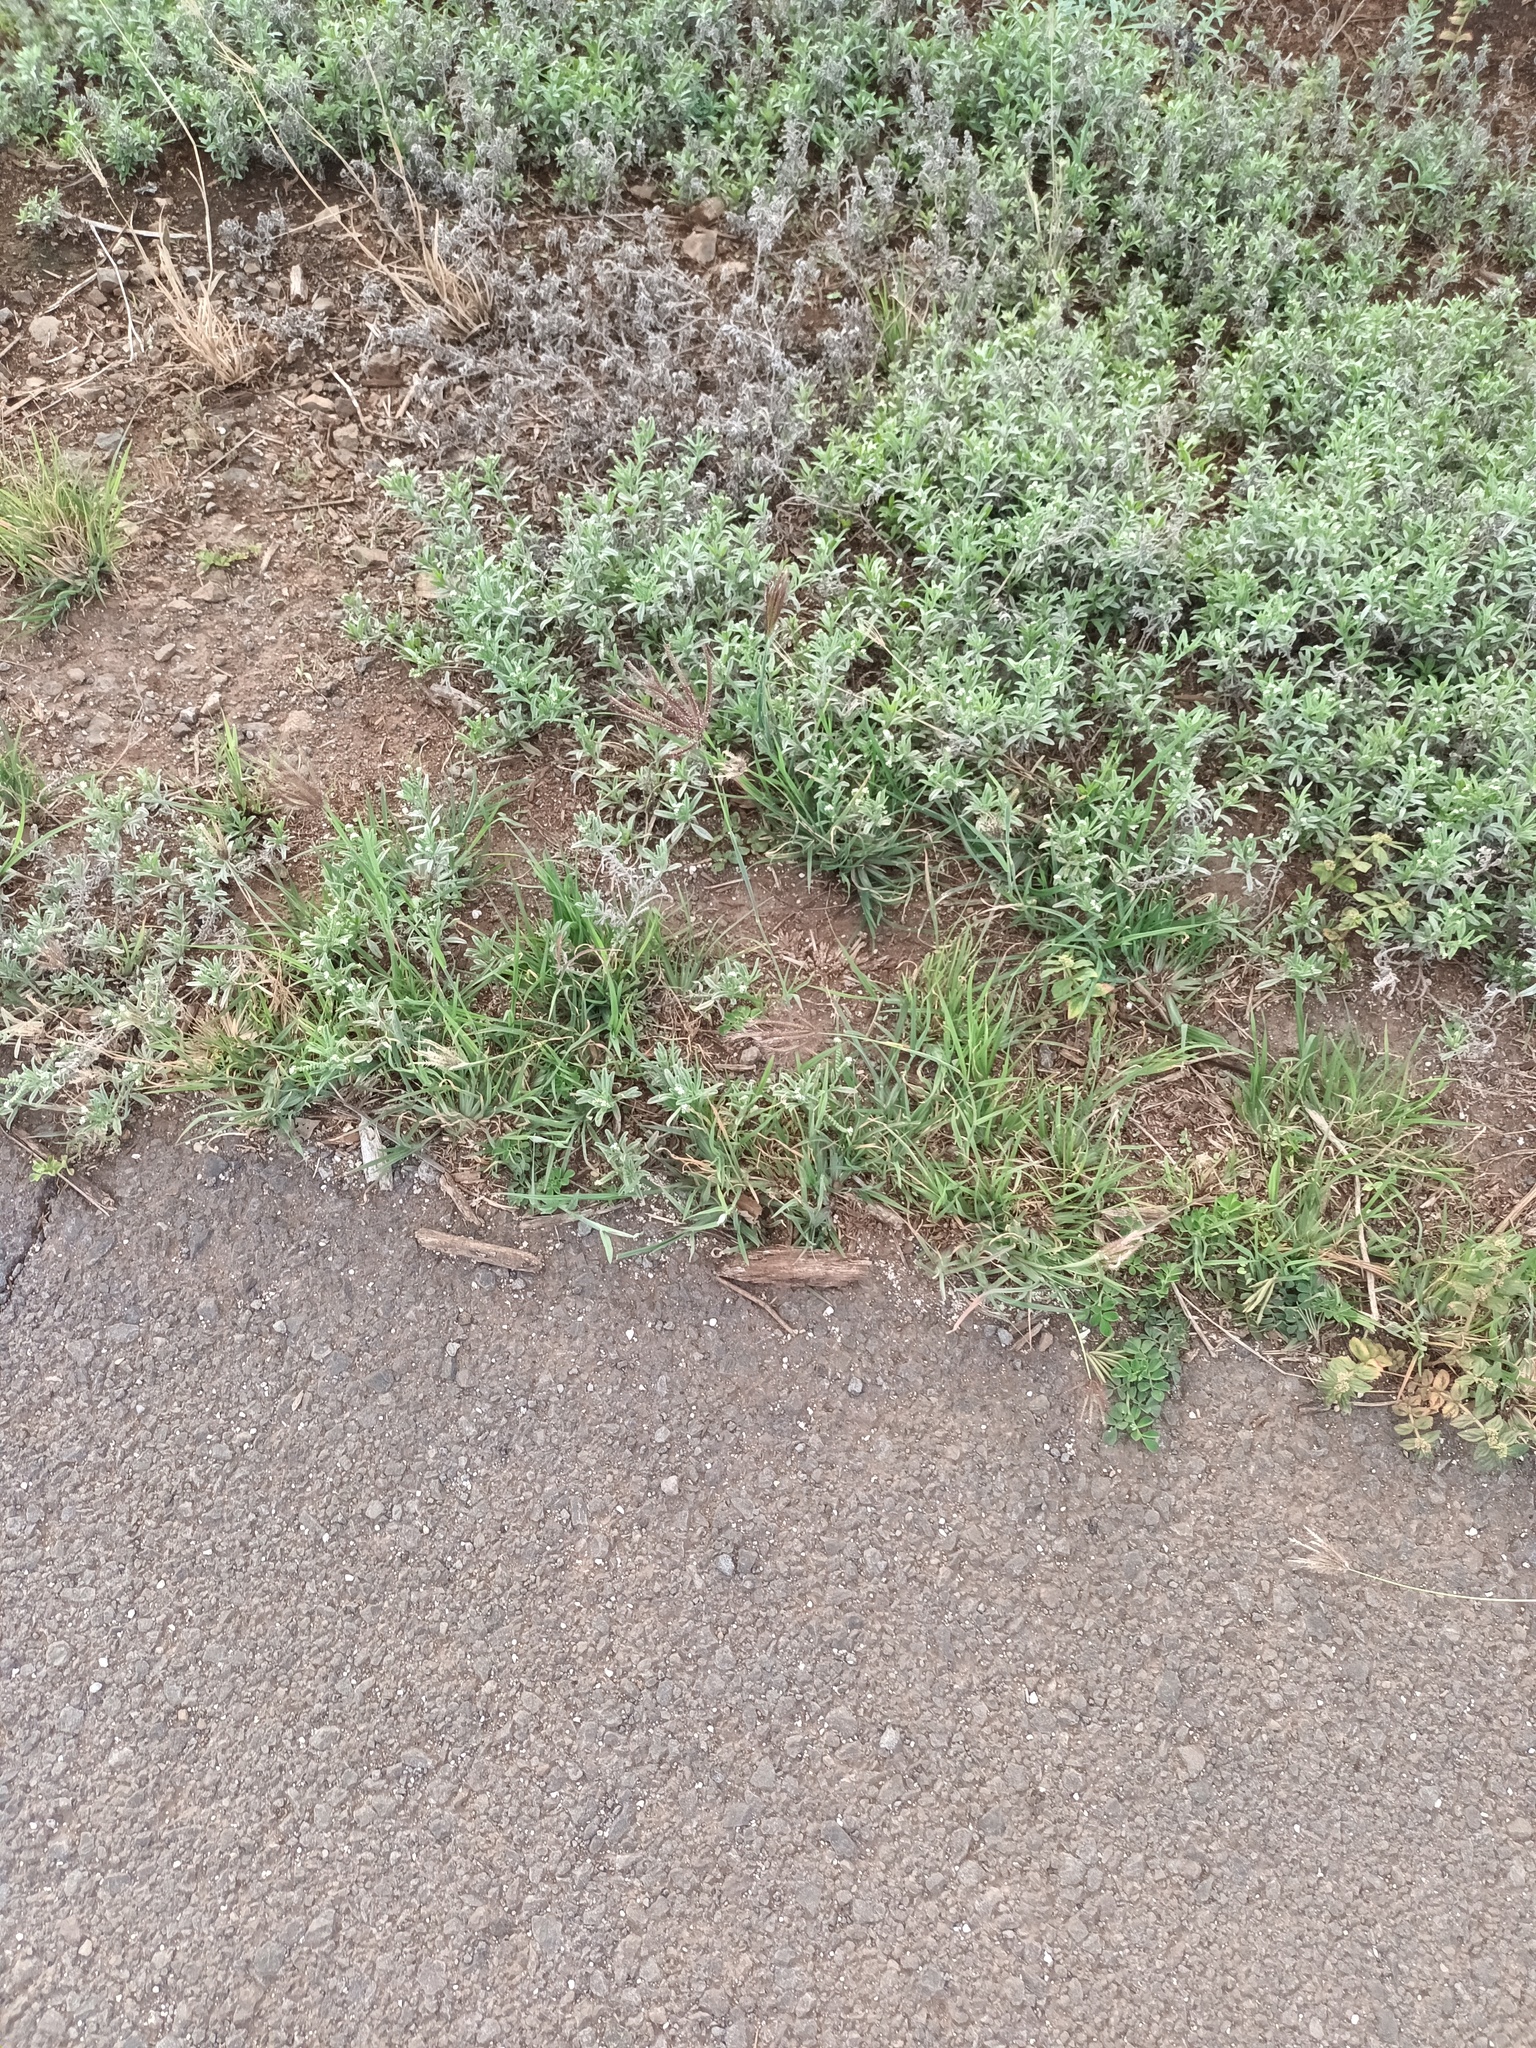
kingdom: Plantae
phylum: Tracheophyta
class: Liliopsida
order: Poales
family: Poaceae
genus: Chloris
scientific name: Chloris barbata
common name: Swollen fingergrass
